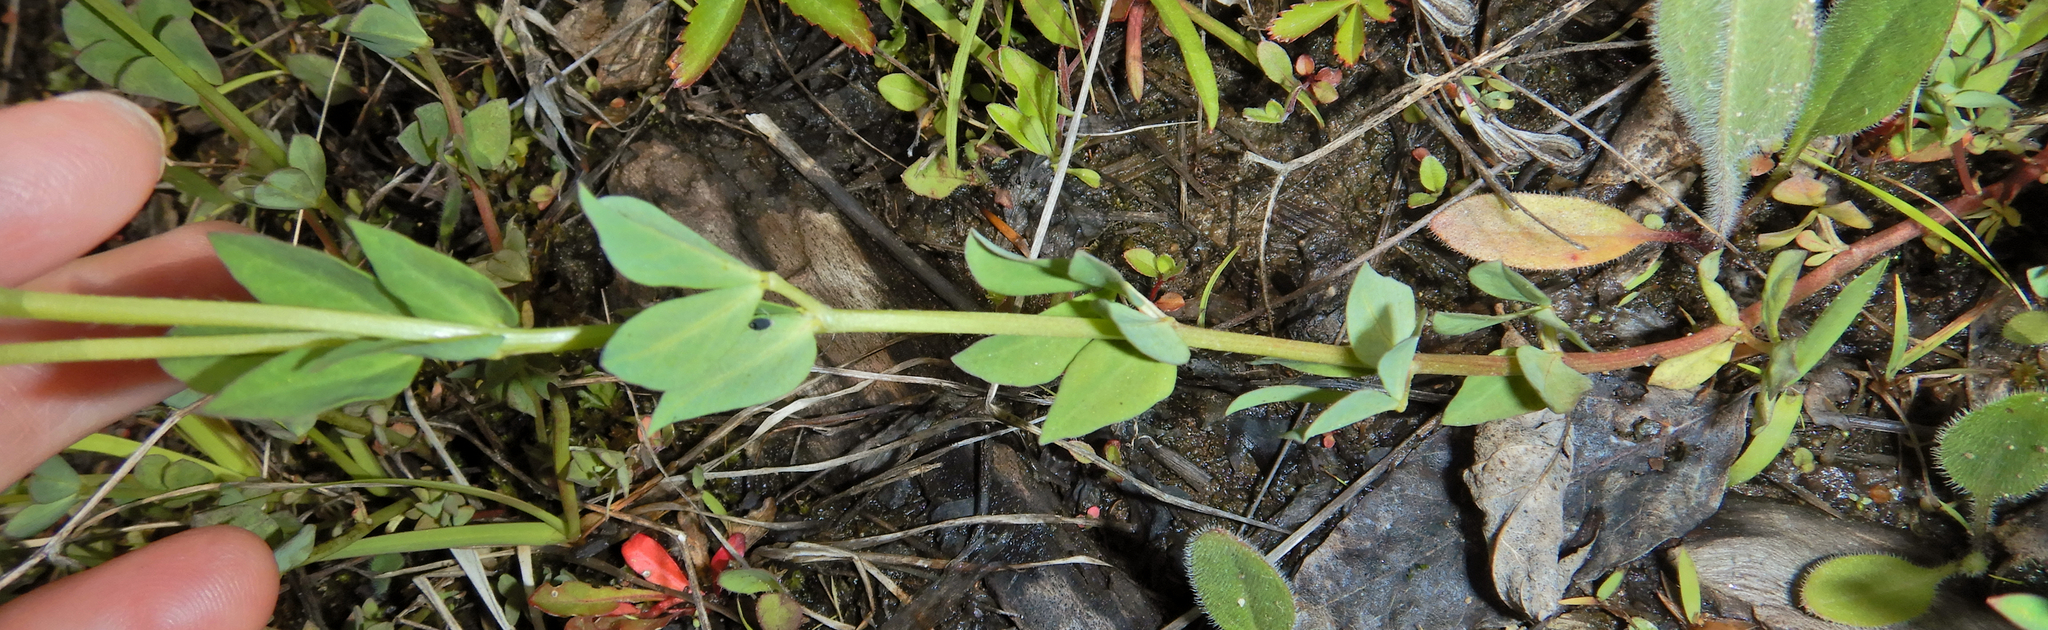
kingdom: Plantae
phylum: Tracheophyta
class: Magnoliopsida
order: Fabales
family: Fabaceae
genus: Lotus
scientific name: Lotus corniculatus
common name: Common bird's-foot-trefoil
